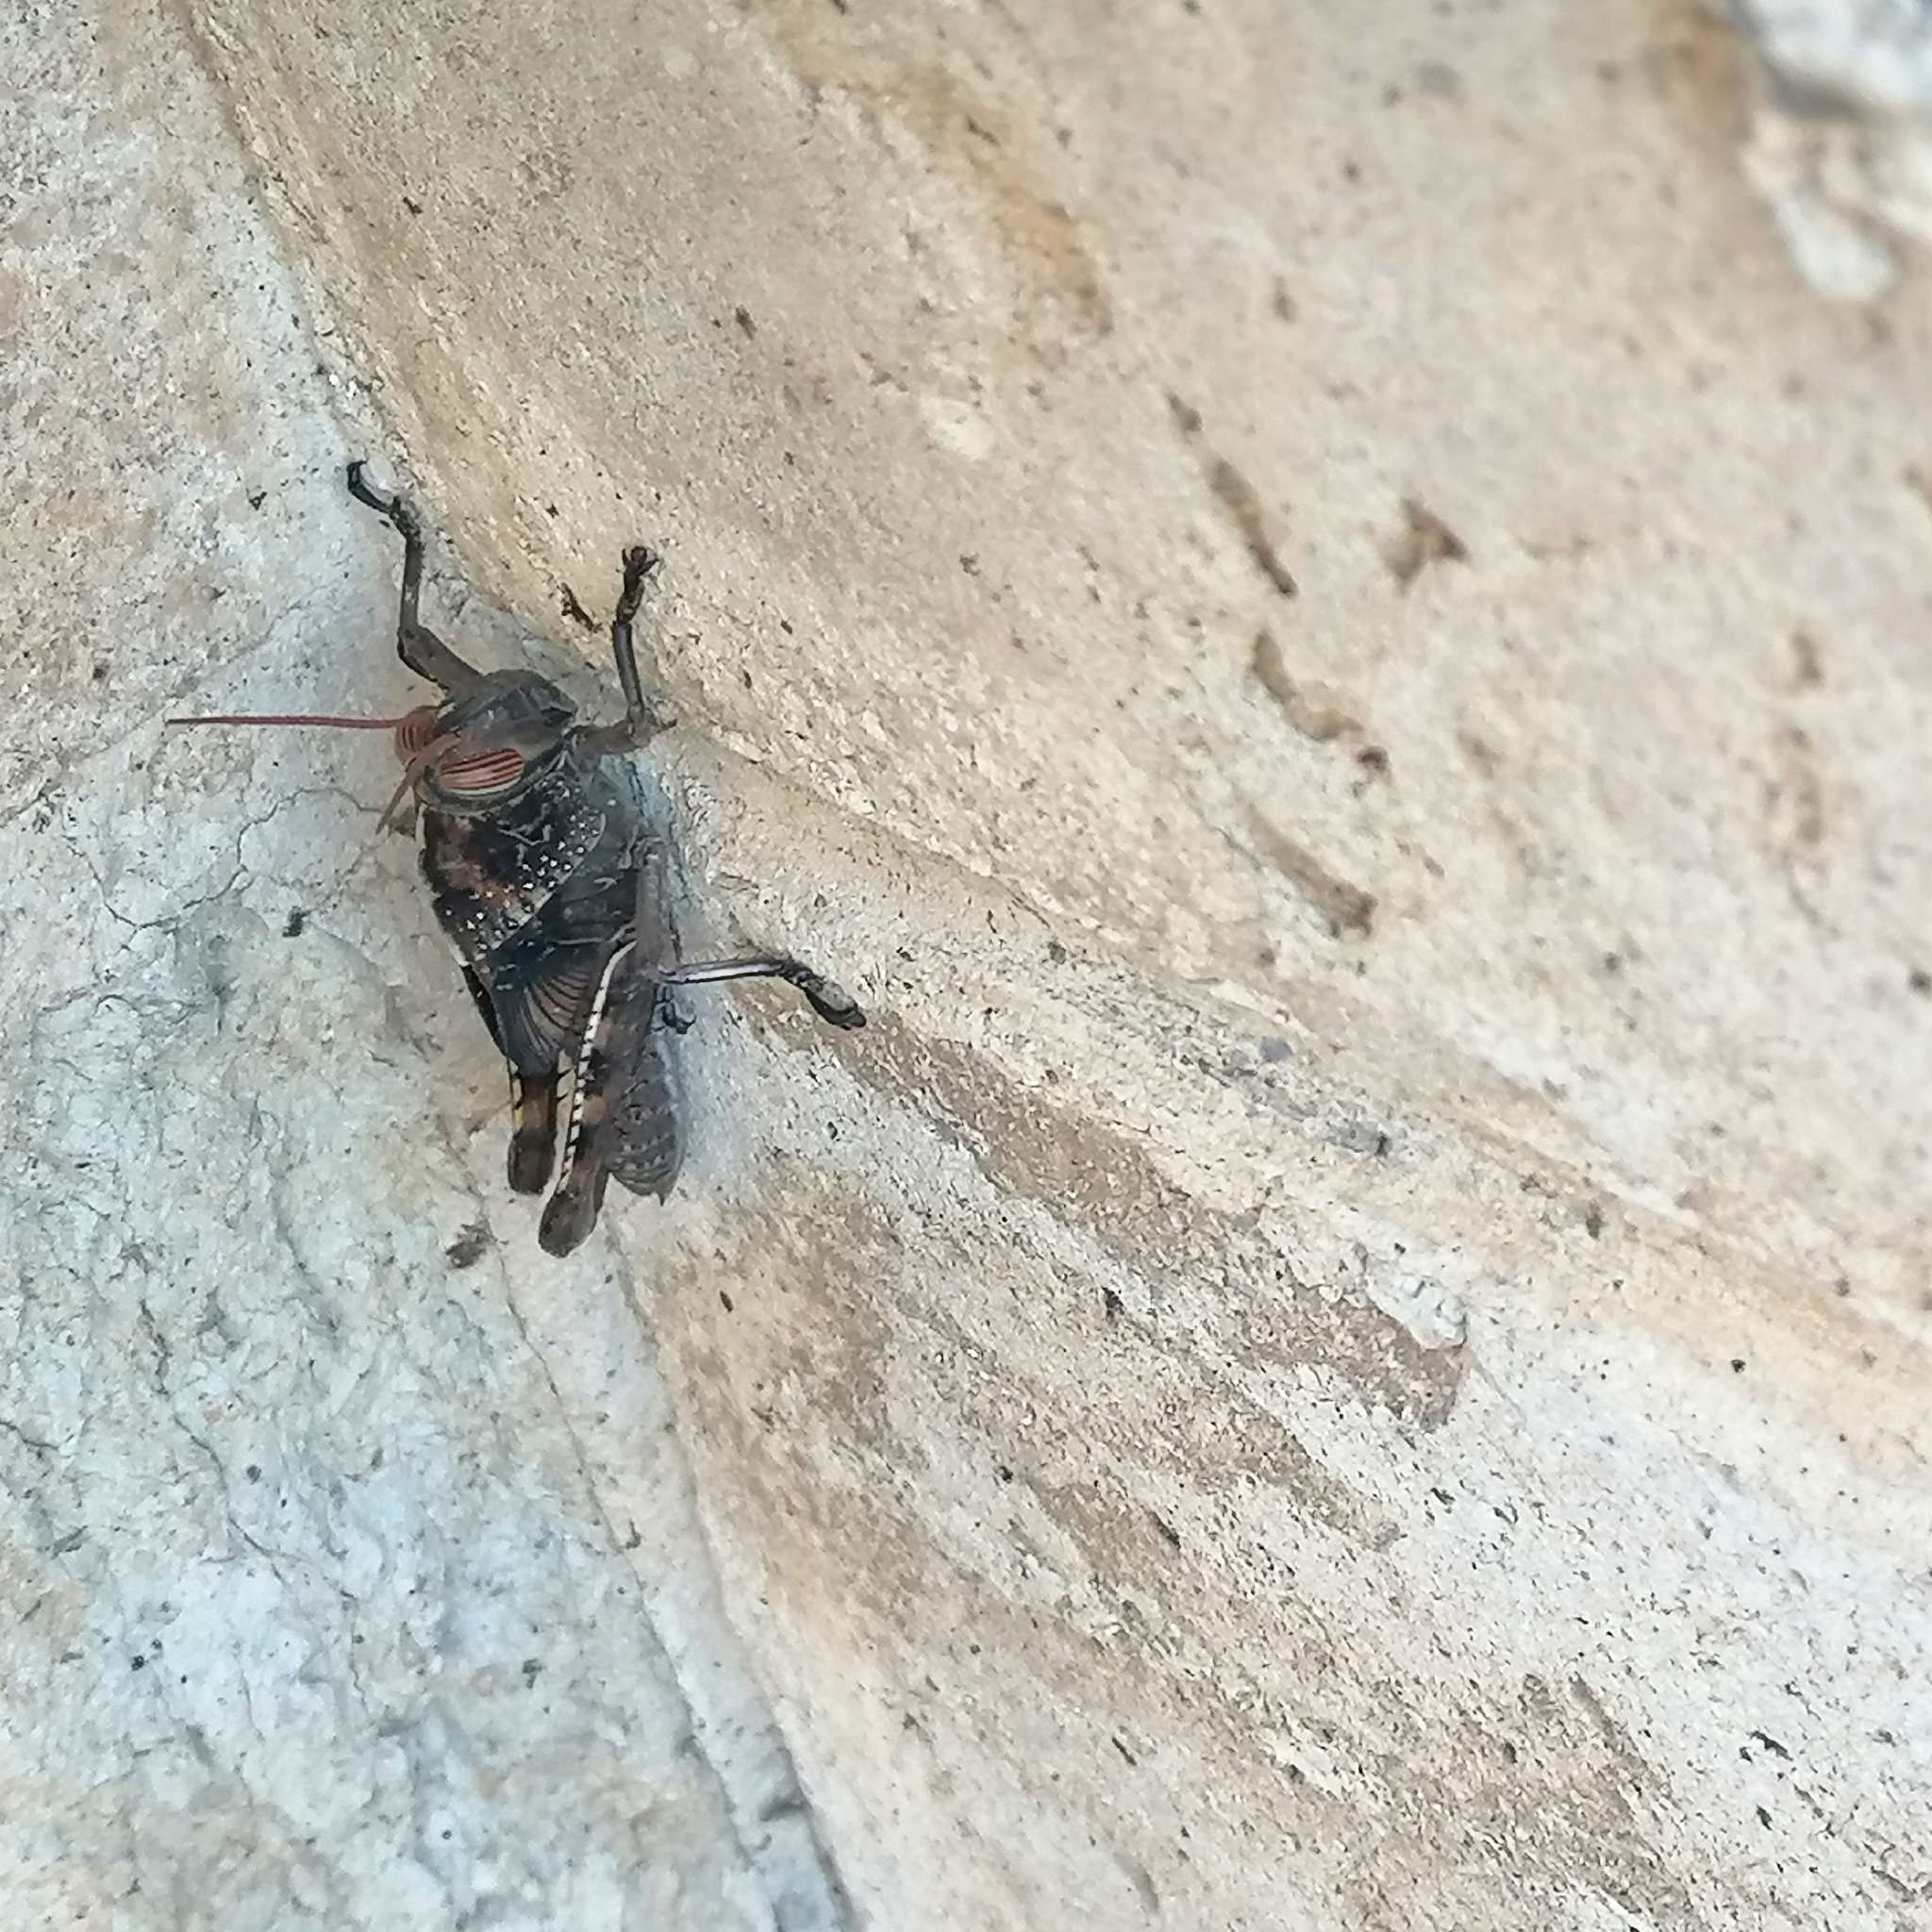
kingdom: Animalia
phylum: Arthropoda
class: Insecta
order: Orthoptera
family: Acrididae
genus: Anacridium
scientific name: Anacridium aegyptium
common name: Egyptian grasshopper
